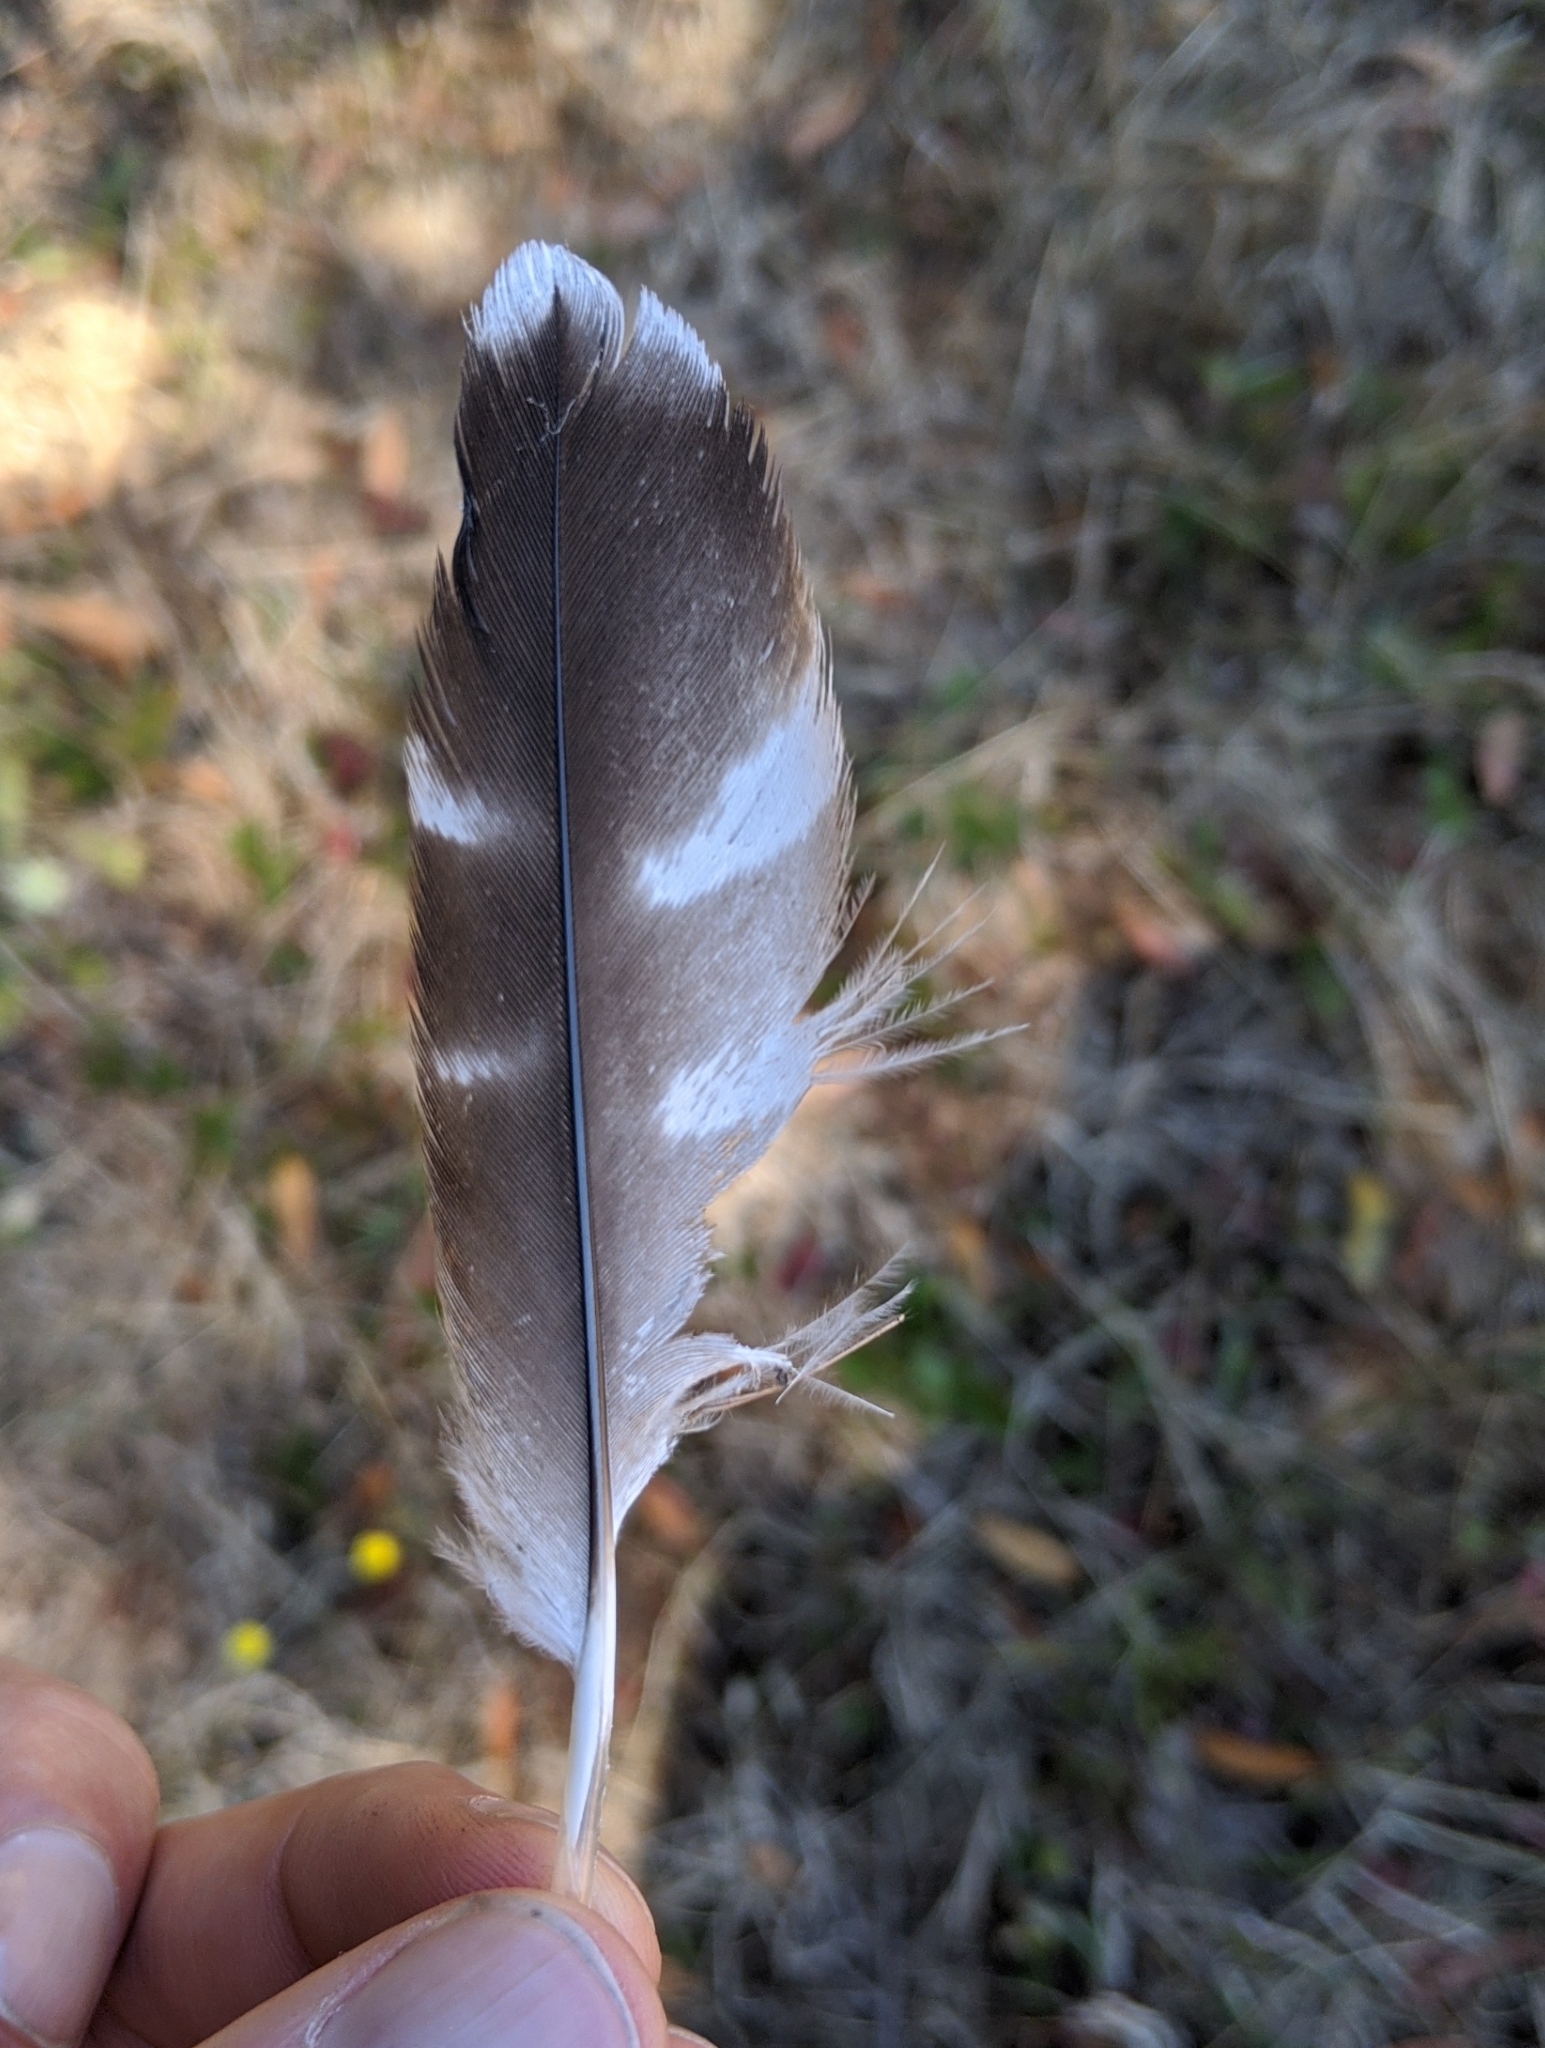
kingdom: Animalia
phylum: Chordata
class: Aves
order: Accipitriformes
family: Accipitridae
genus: Buteo
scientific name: Buteo lineatus
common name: Red-shouldered hawk
